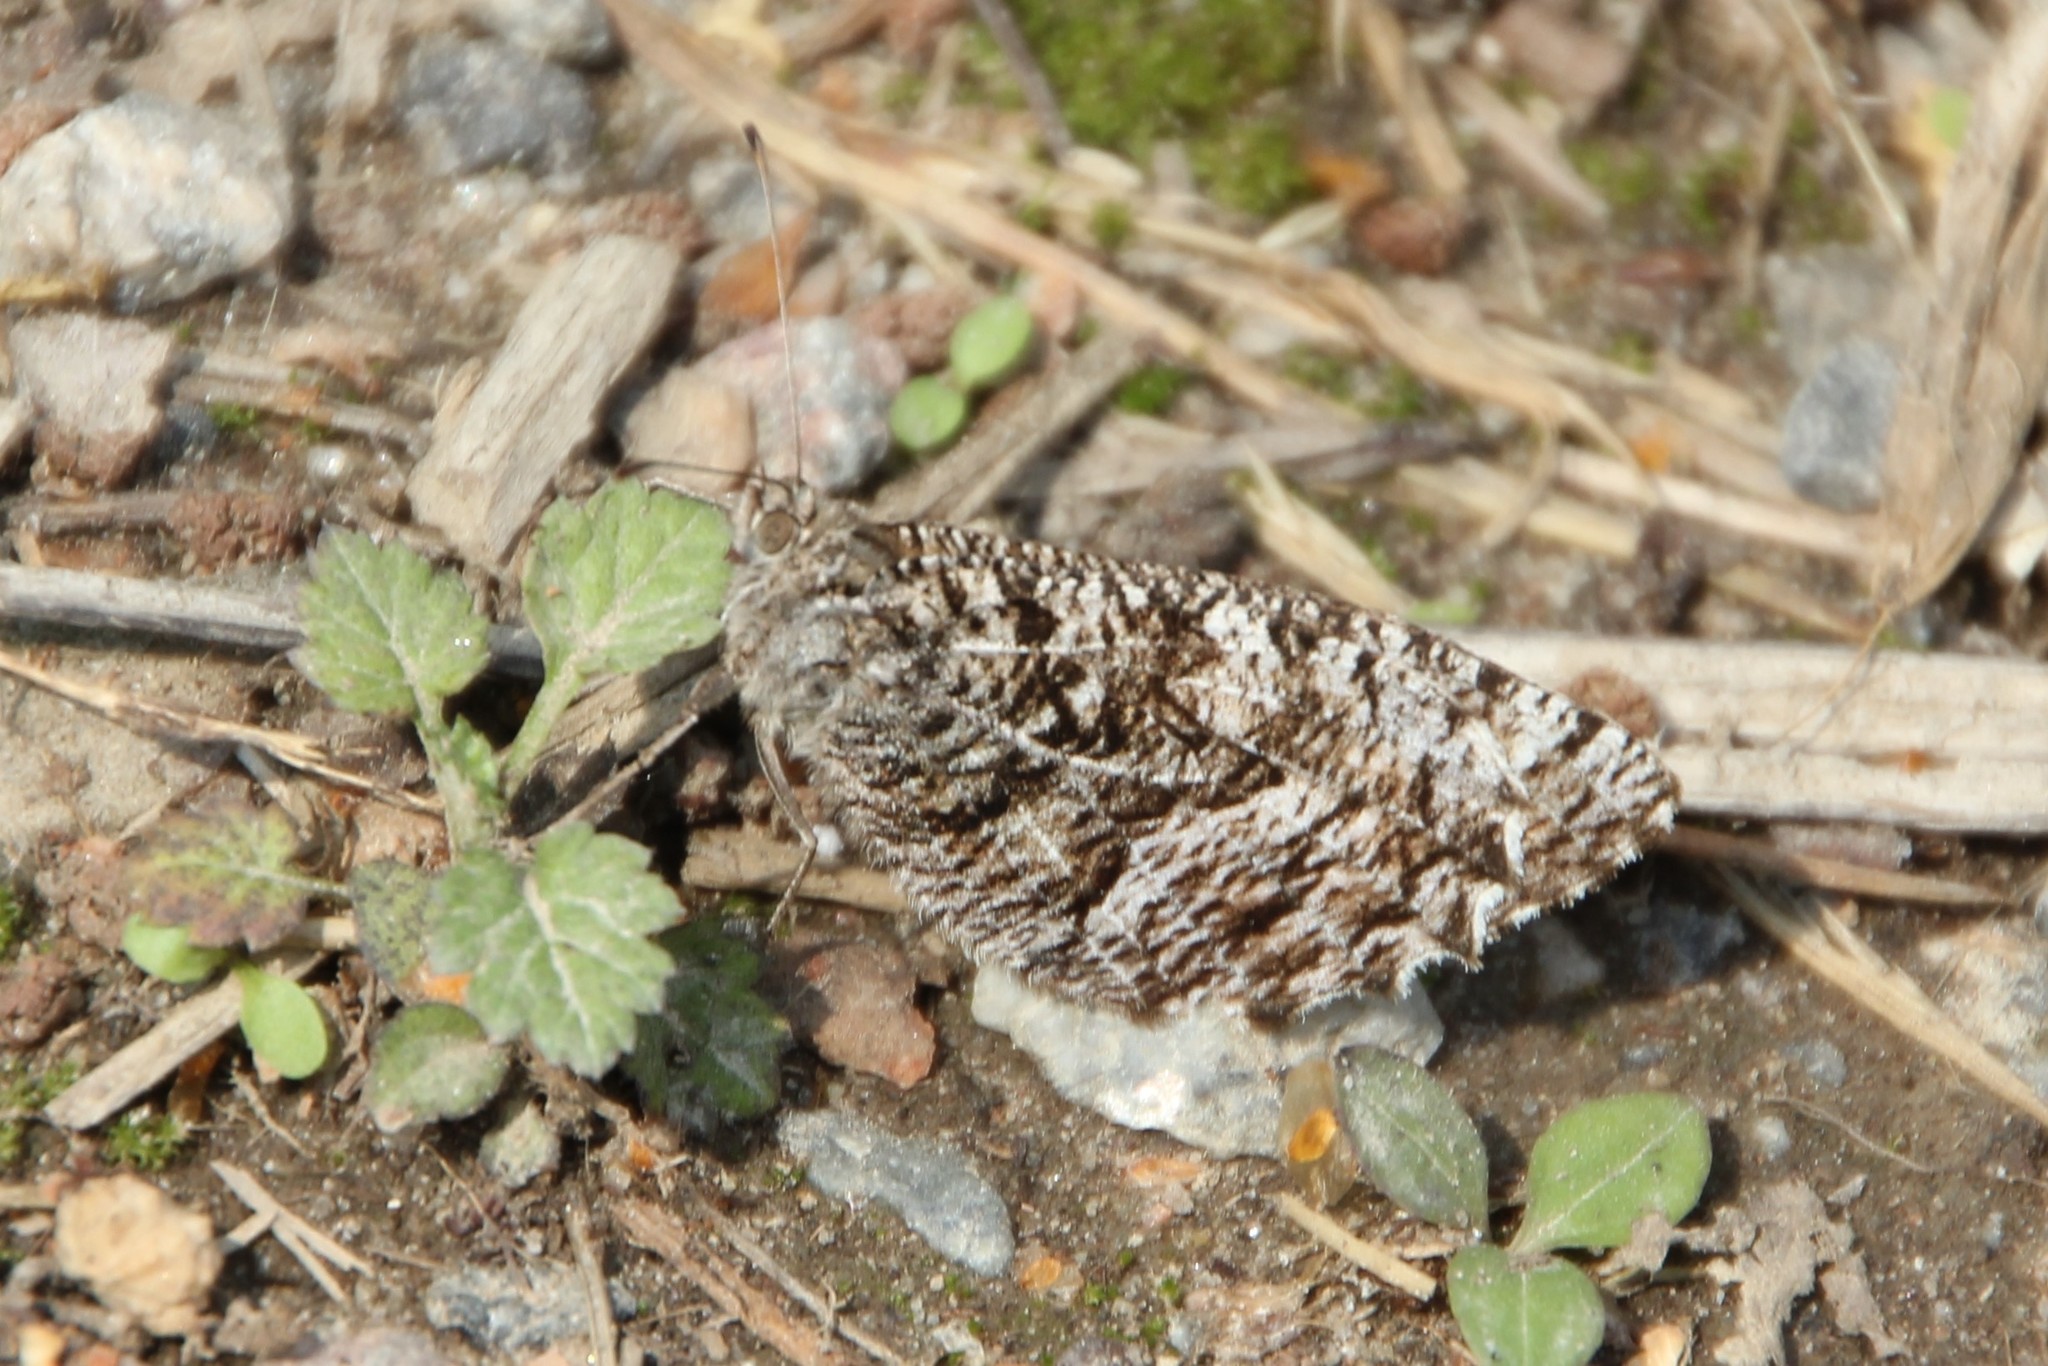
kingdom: Animalia
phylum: Arthropoda
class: Insecta
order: Lepidoptera
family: Nymphalidae
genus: Hipparchia
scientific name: Hipparchia semele
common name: Grayling
